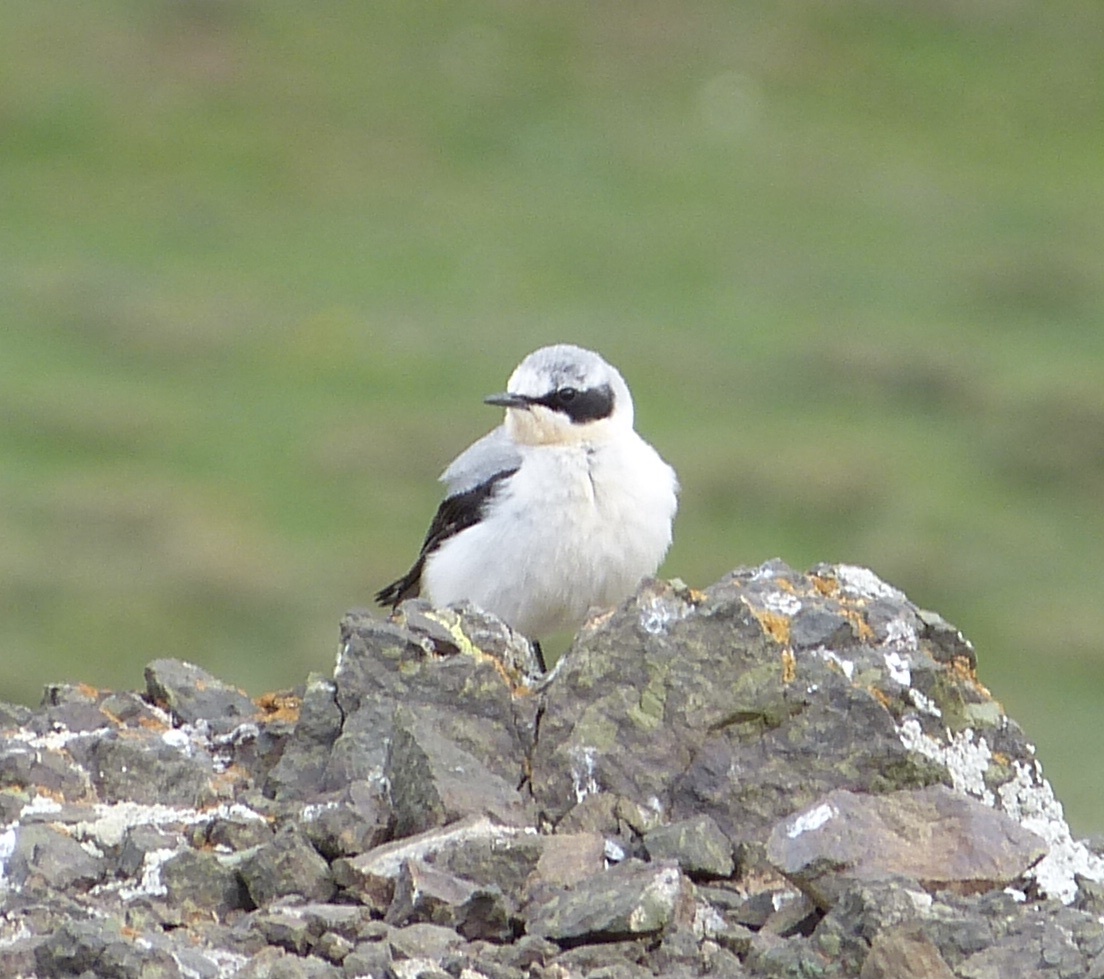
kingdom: Animalia
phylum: Chordata
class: Aves
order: Passeriformes
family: Muscicapidae
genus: Oenanthe
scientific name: Oenanthe oenanthe
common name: Northern wheatear
